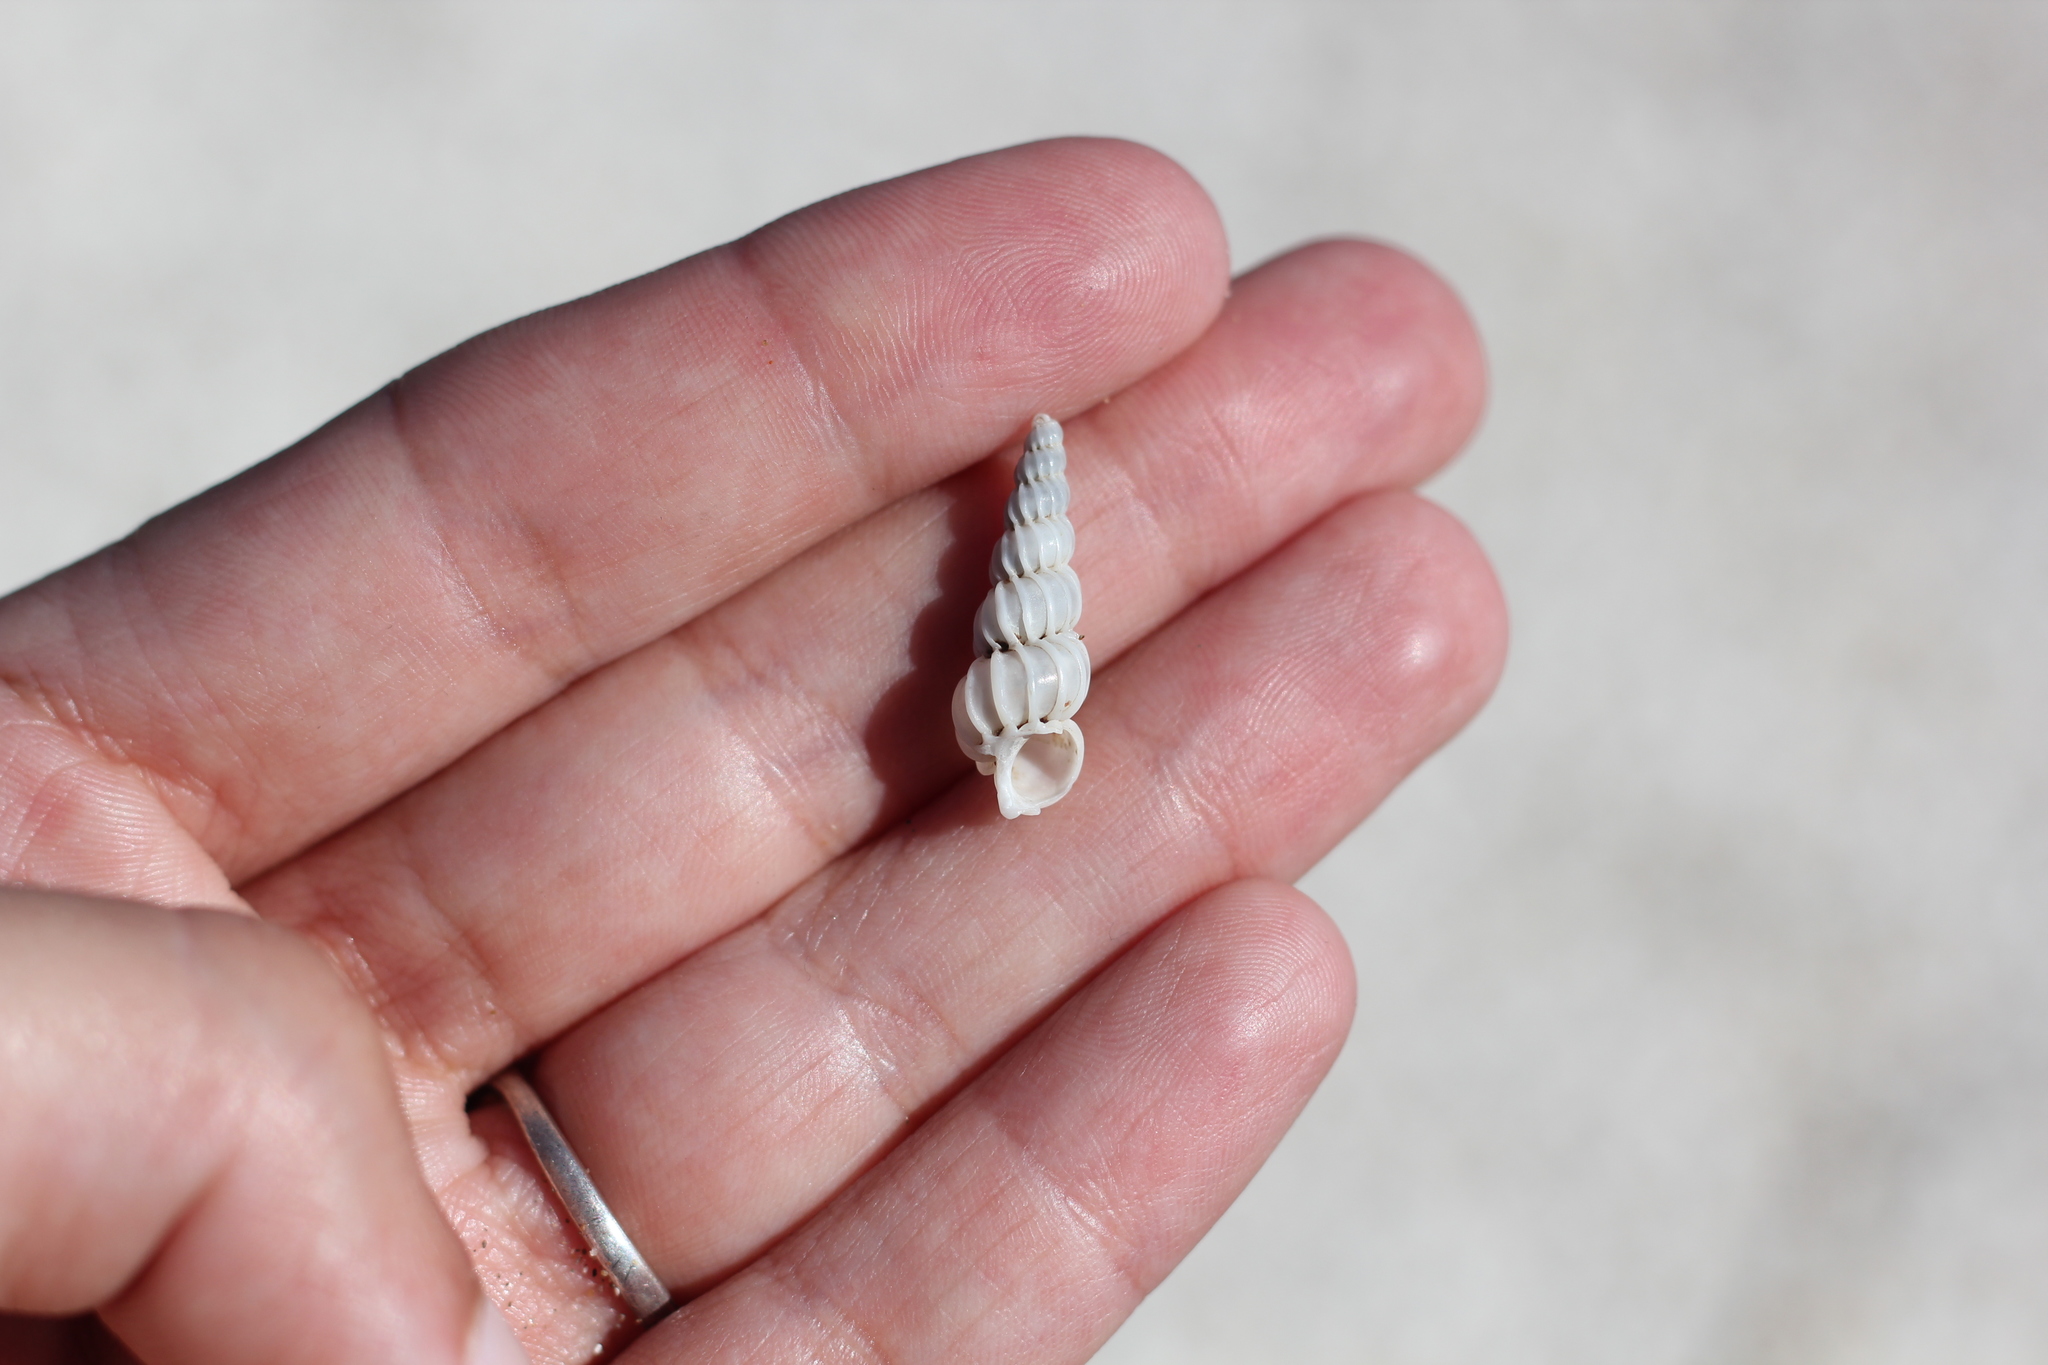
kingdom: Animalia
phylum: Mollusca
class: Gastropoda
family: Epitoniidae
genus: Epitonium
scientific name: Epitonium georgettinum
